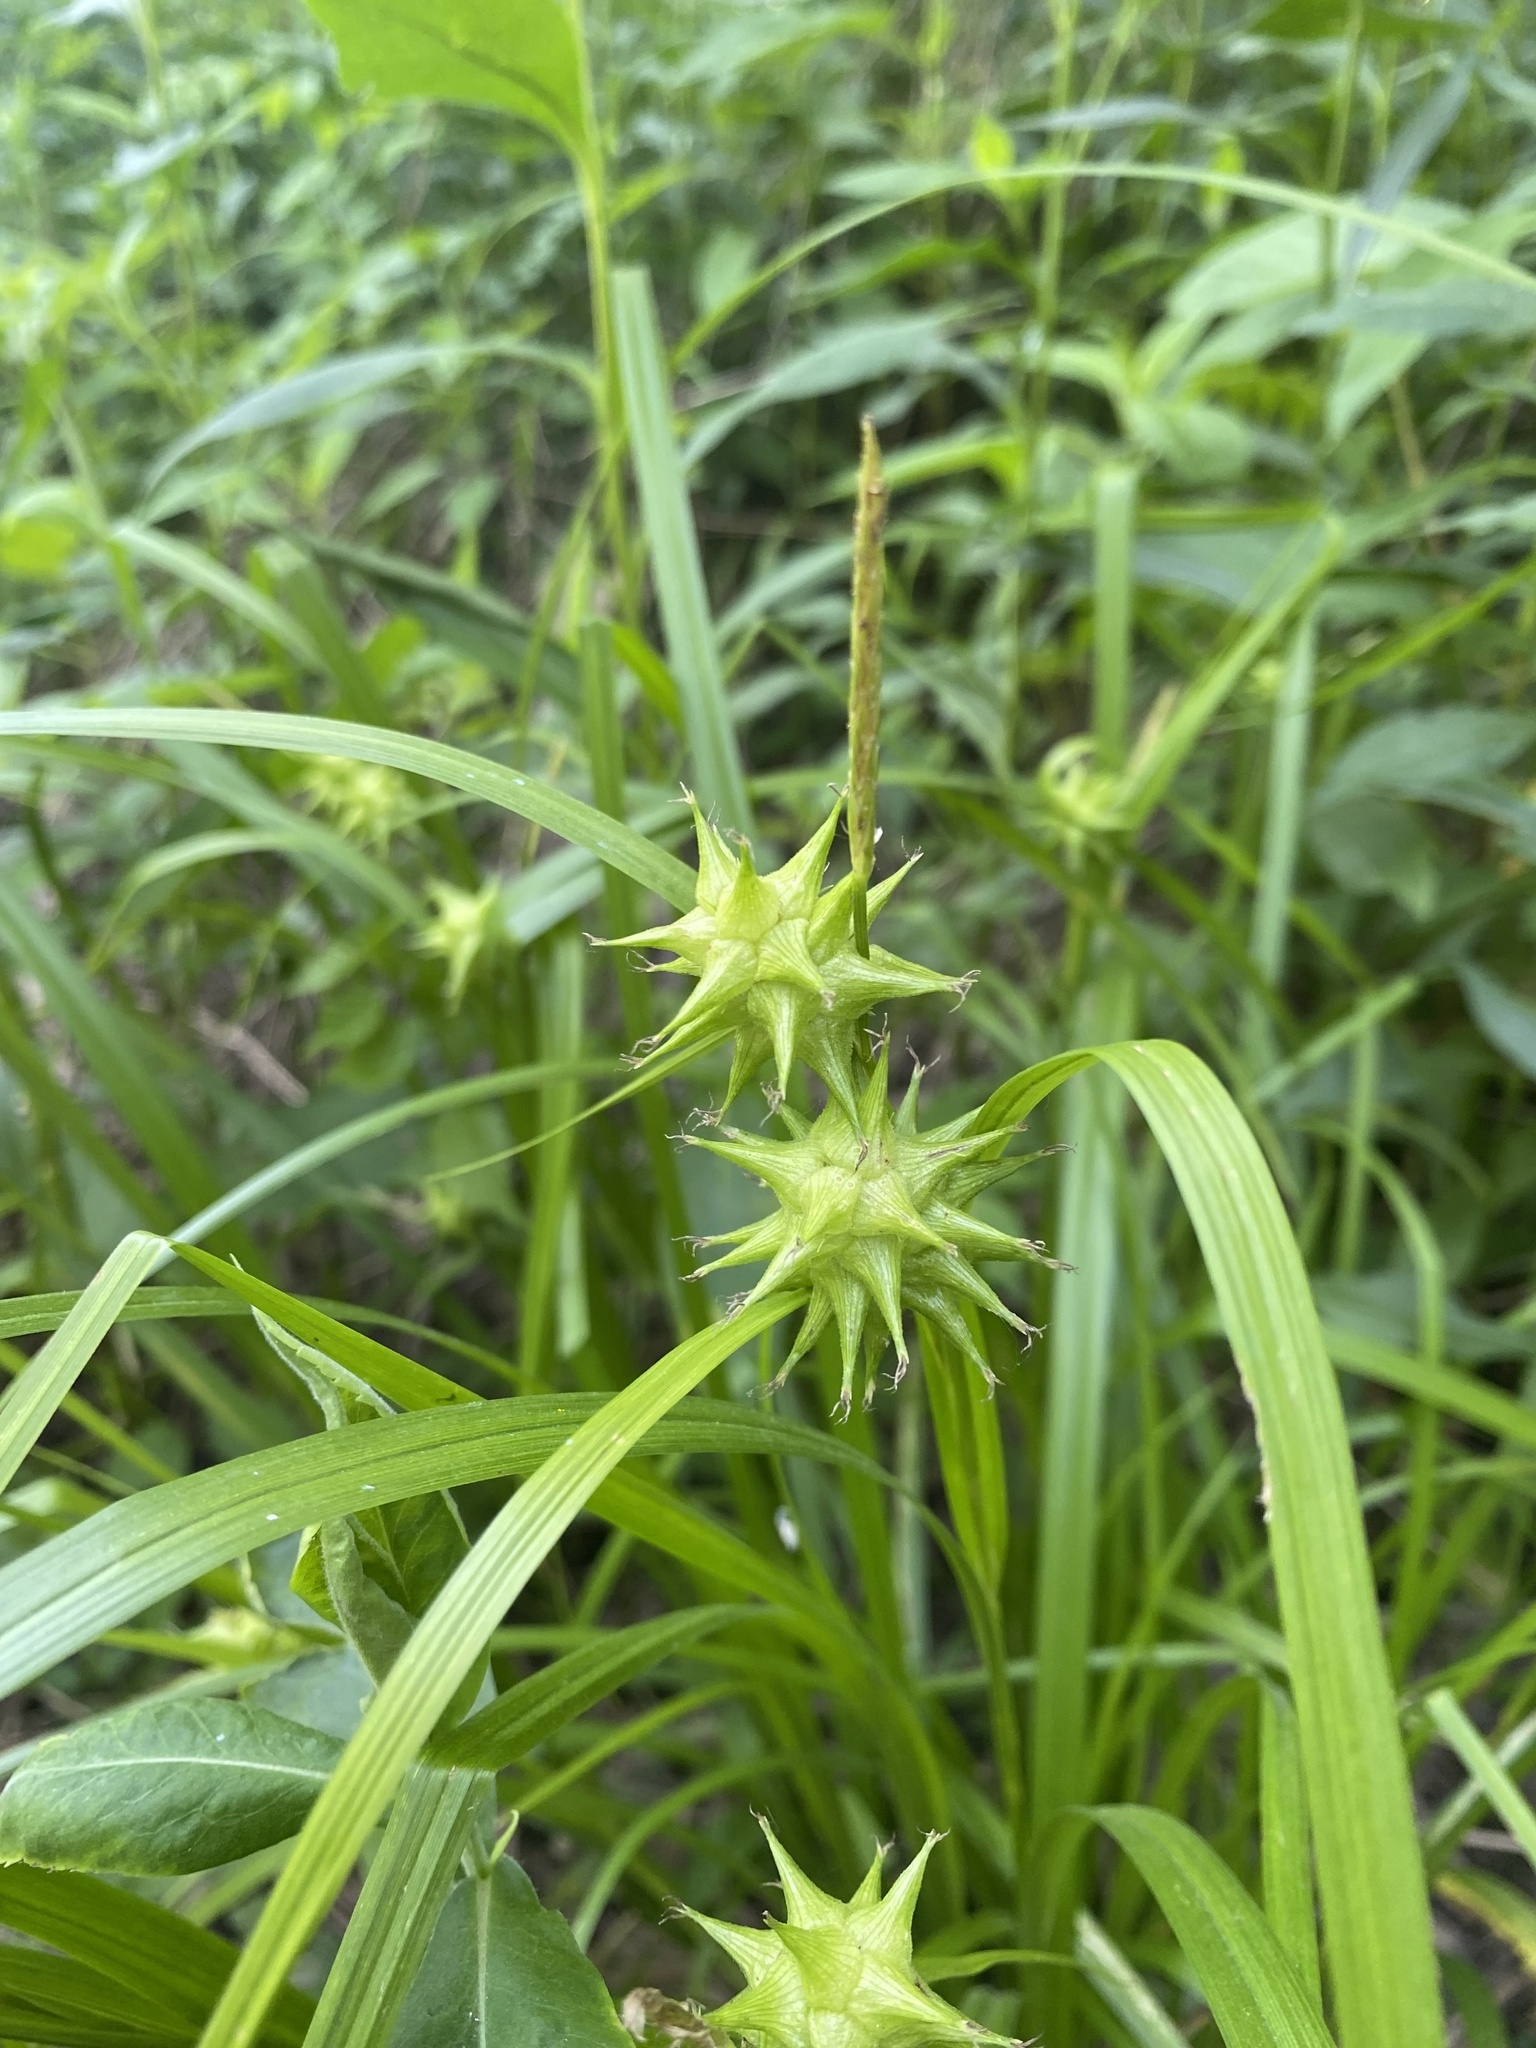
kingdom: Plantae
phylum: Tracheophyta
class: Liliopsida
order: Poales
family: Cyperaceae
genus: Carex
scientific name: Carex grayi
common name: Asa gray's sedge
